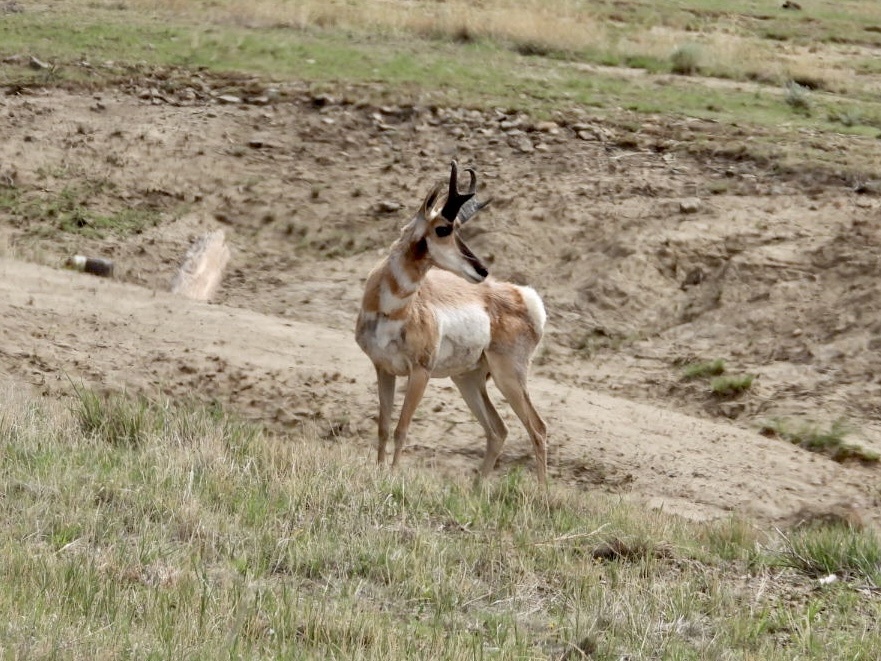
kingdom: Animalia
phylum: Chordata
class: Mammalia
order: Artiodactyla
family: Antilocapridae
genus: Antilocapra
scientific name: Antilocapra americana
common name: Pronghorn
